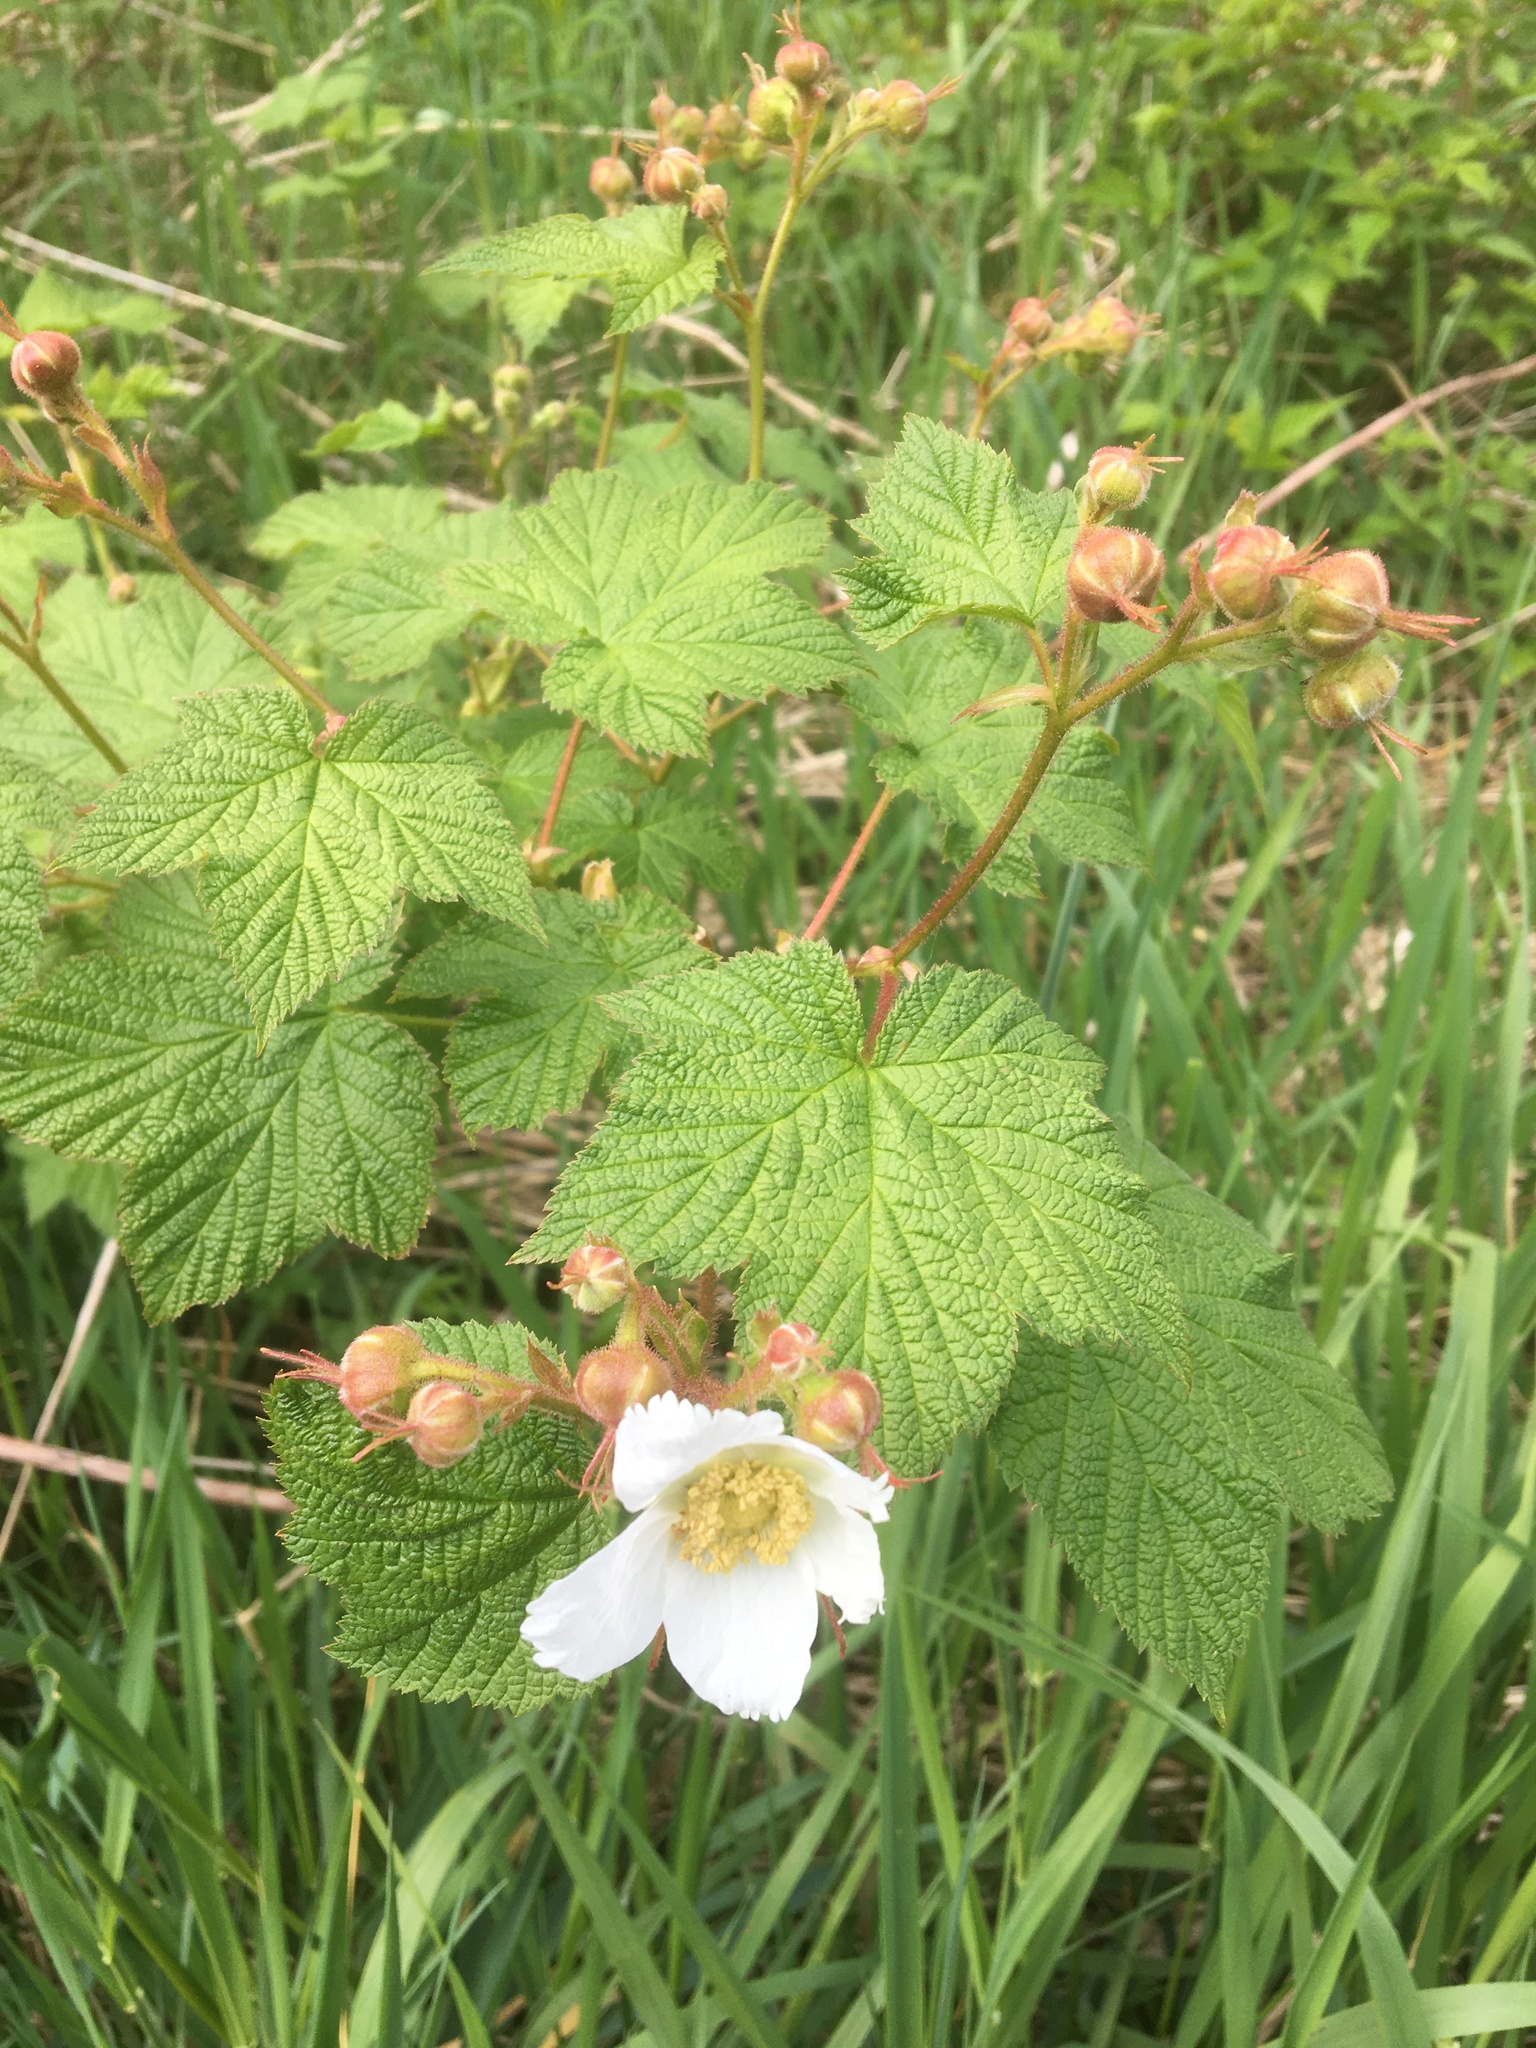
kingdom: Plantae
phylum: Tracheophyta
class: Magnoliopsida
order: Rosales
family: Rosaceae
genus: Rubus
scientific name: Rubus parviflorus
